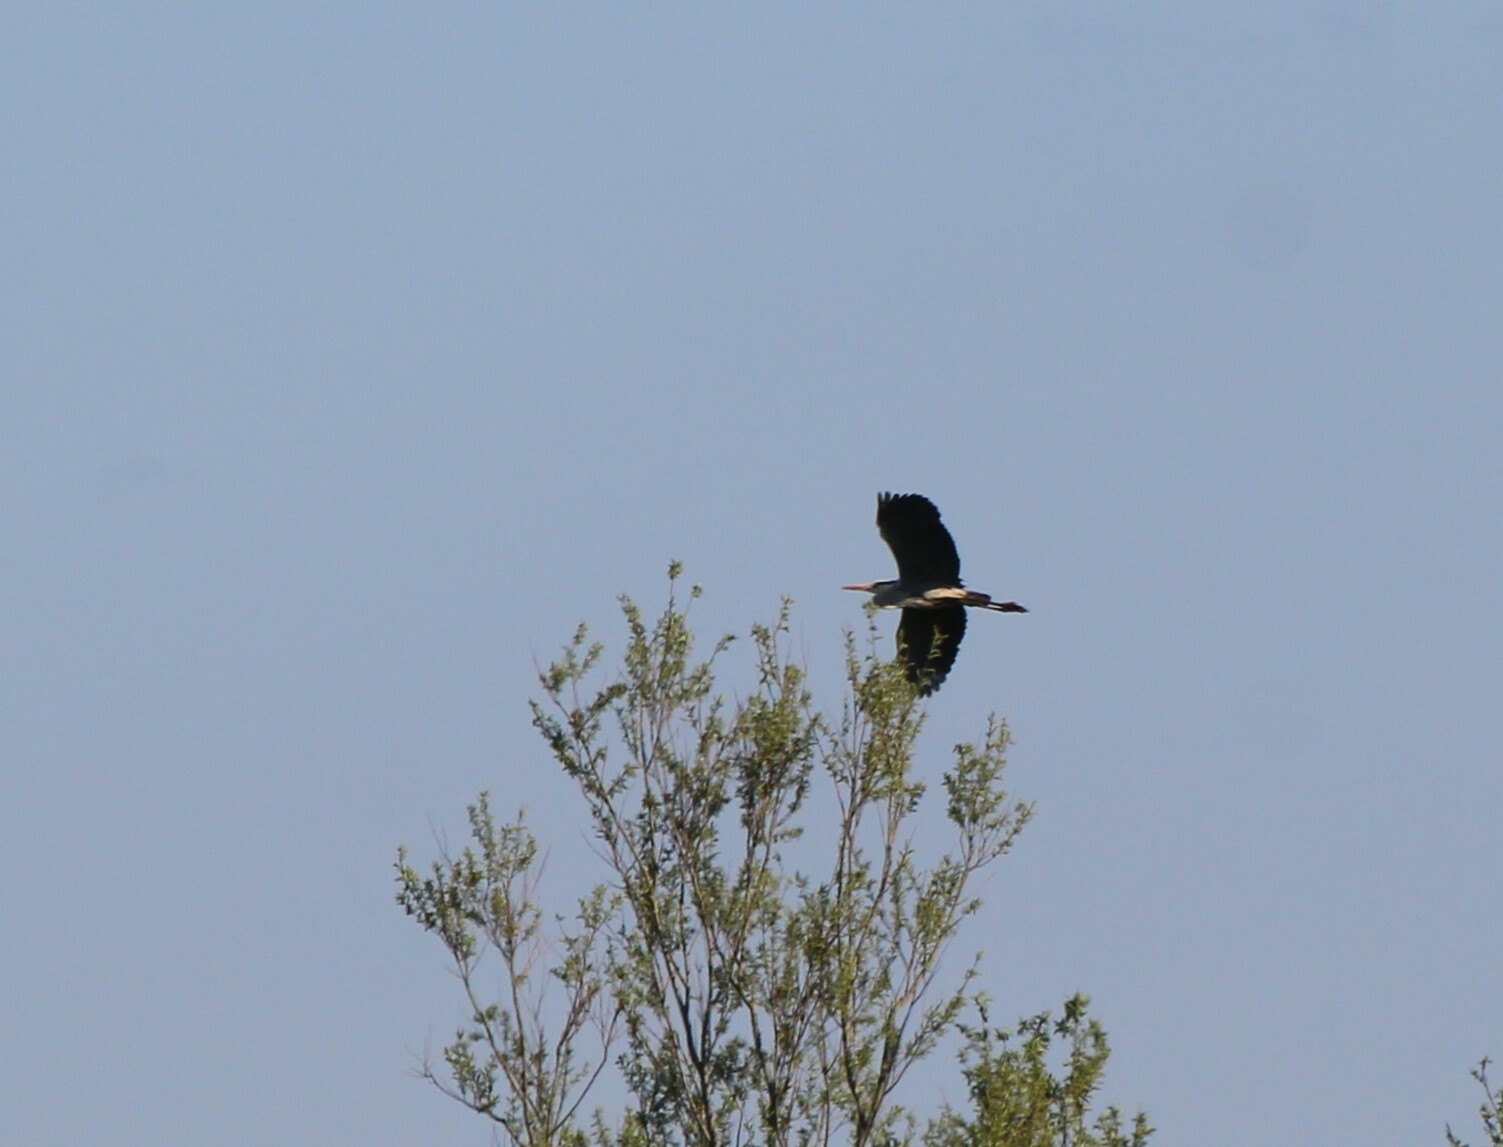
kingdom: Animalia
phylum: Chordata
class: Aves
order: Pelecaniformes
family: Ardeidae
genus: Ardea
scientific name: Ardea cinerea
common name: Grey heron
